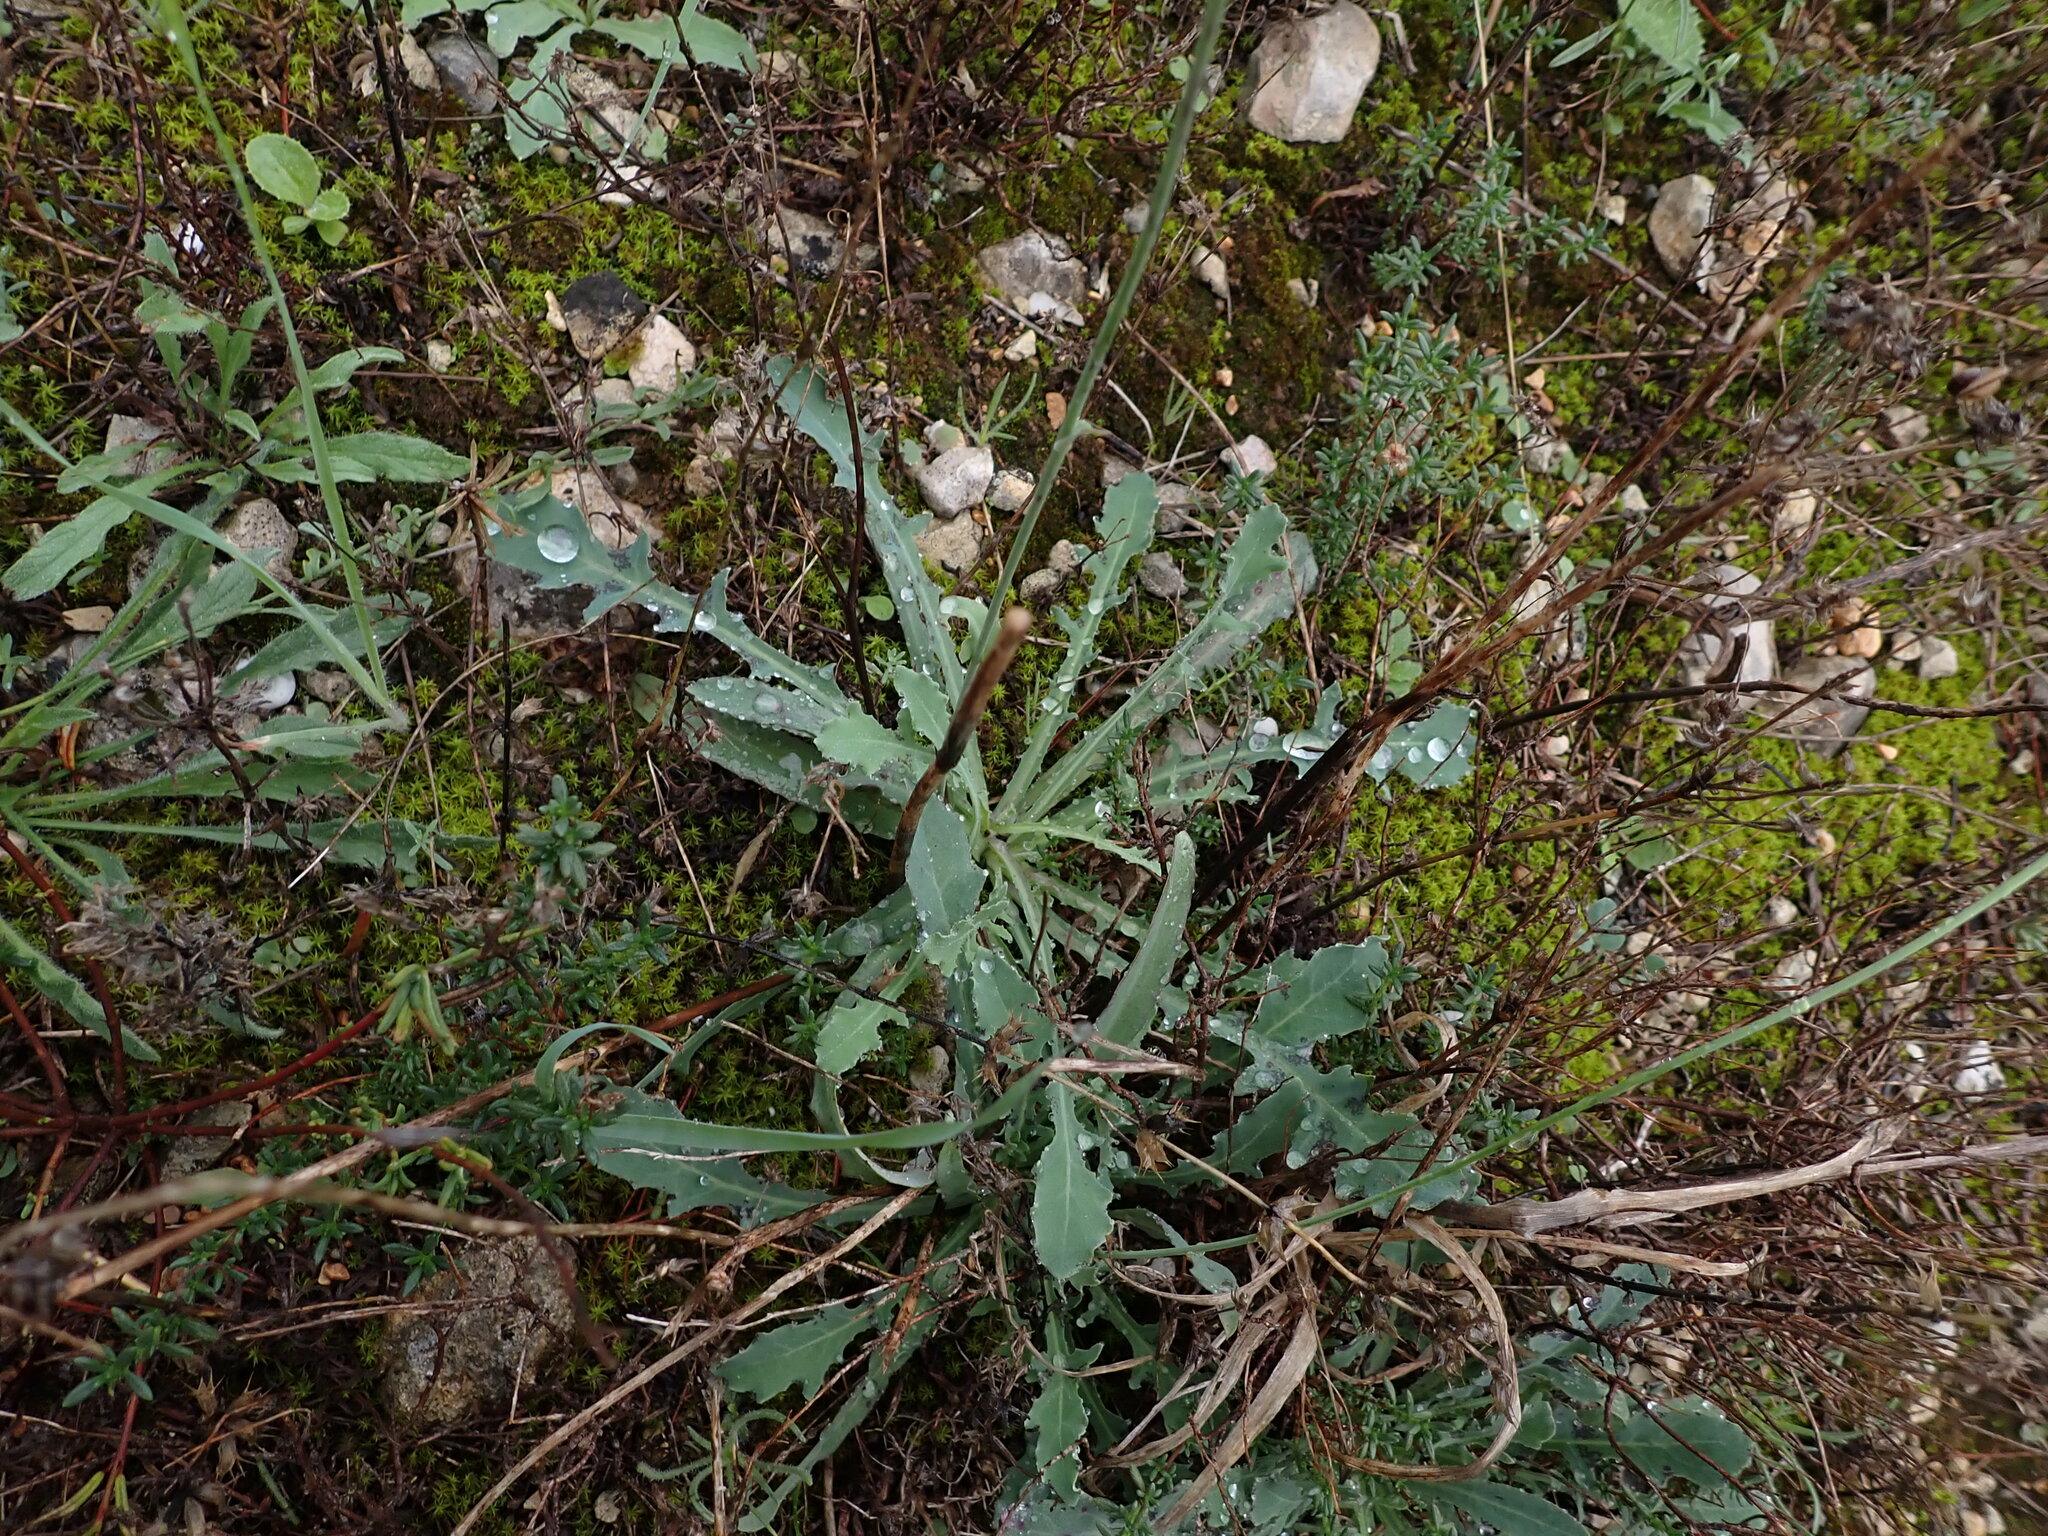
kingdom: Plantae
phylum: Tracheophyta
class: Magnoliopsida
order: Asterales
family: Asteraceae
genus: Reichardia
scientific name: Reichardia picroides
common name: Common brighteyes
